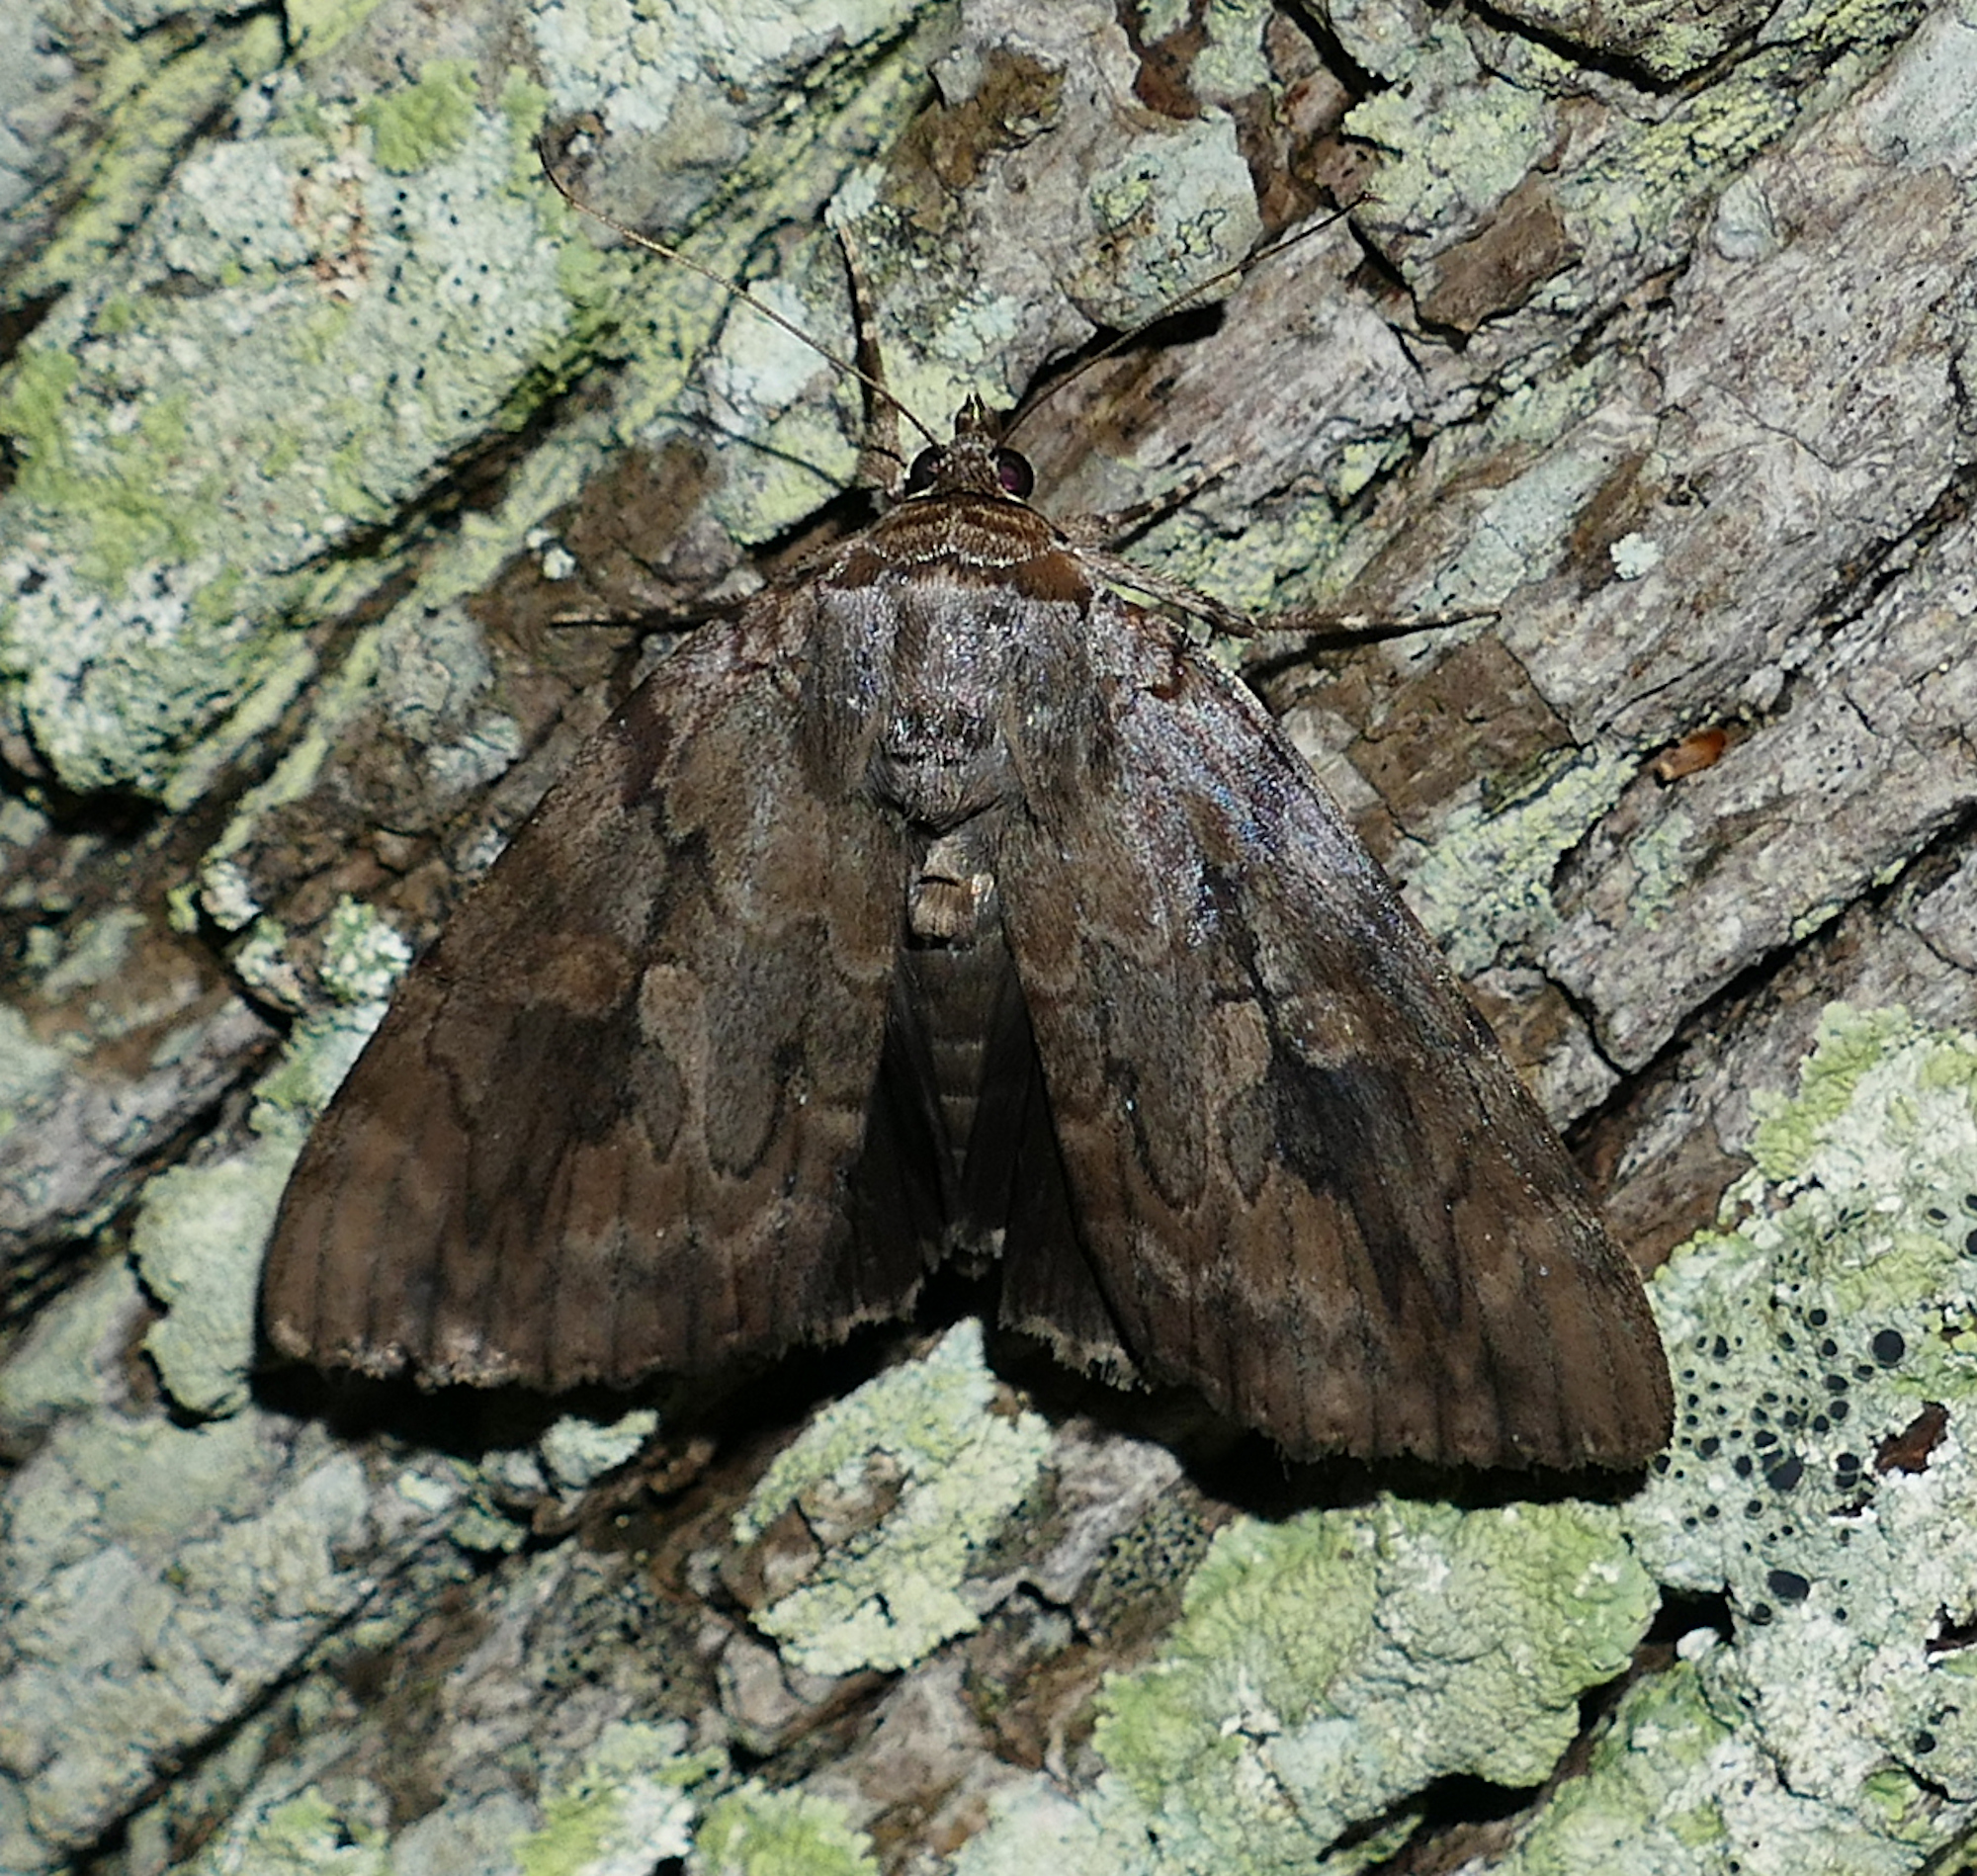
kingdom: Animalia
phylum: Arthropoda
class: Insecta
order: Lepidoptera
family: Erebidae
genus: Catocala
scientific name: Catocala agrippina
